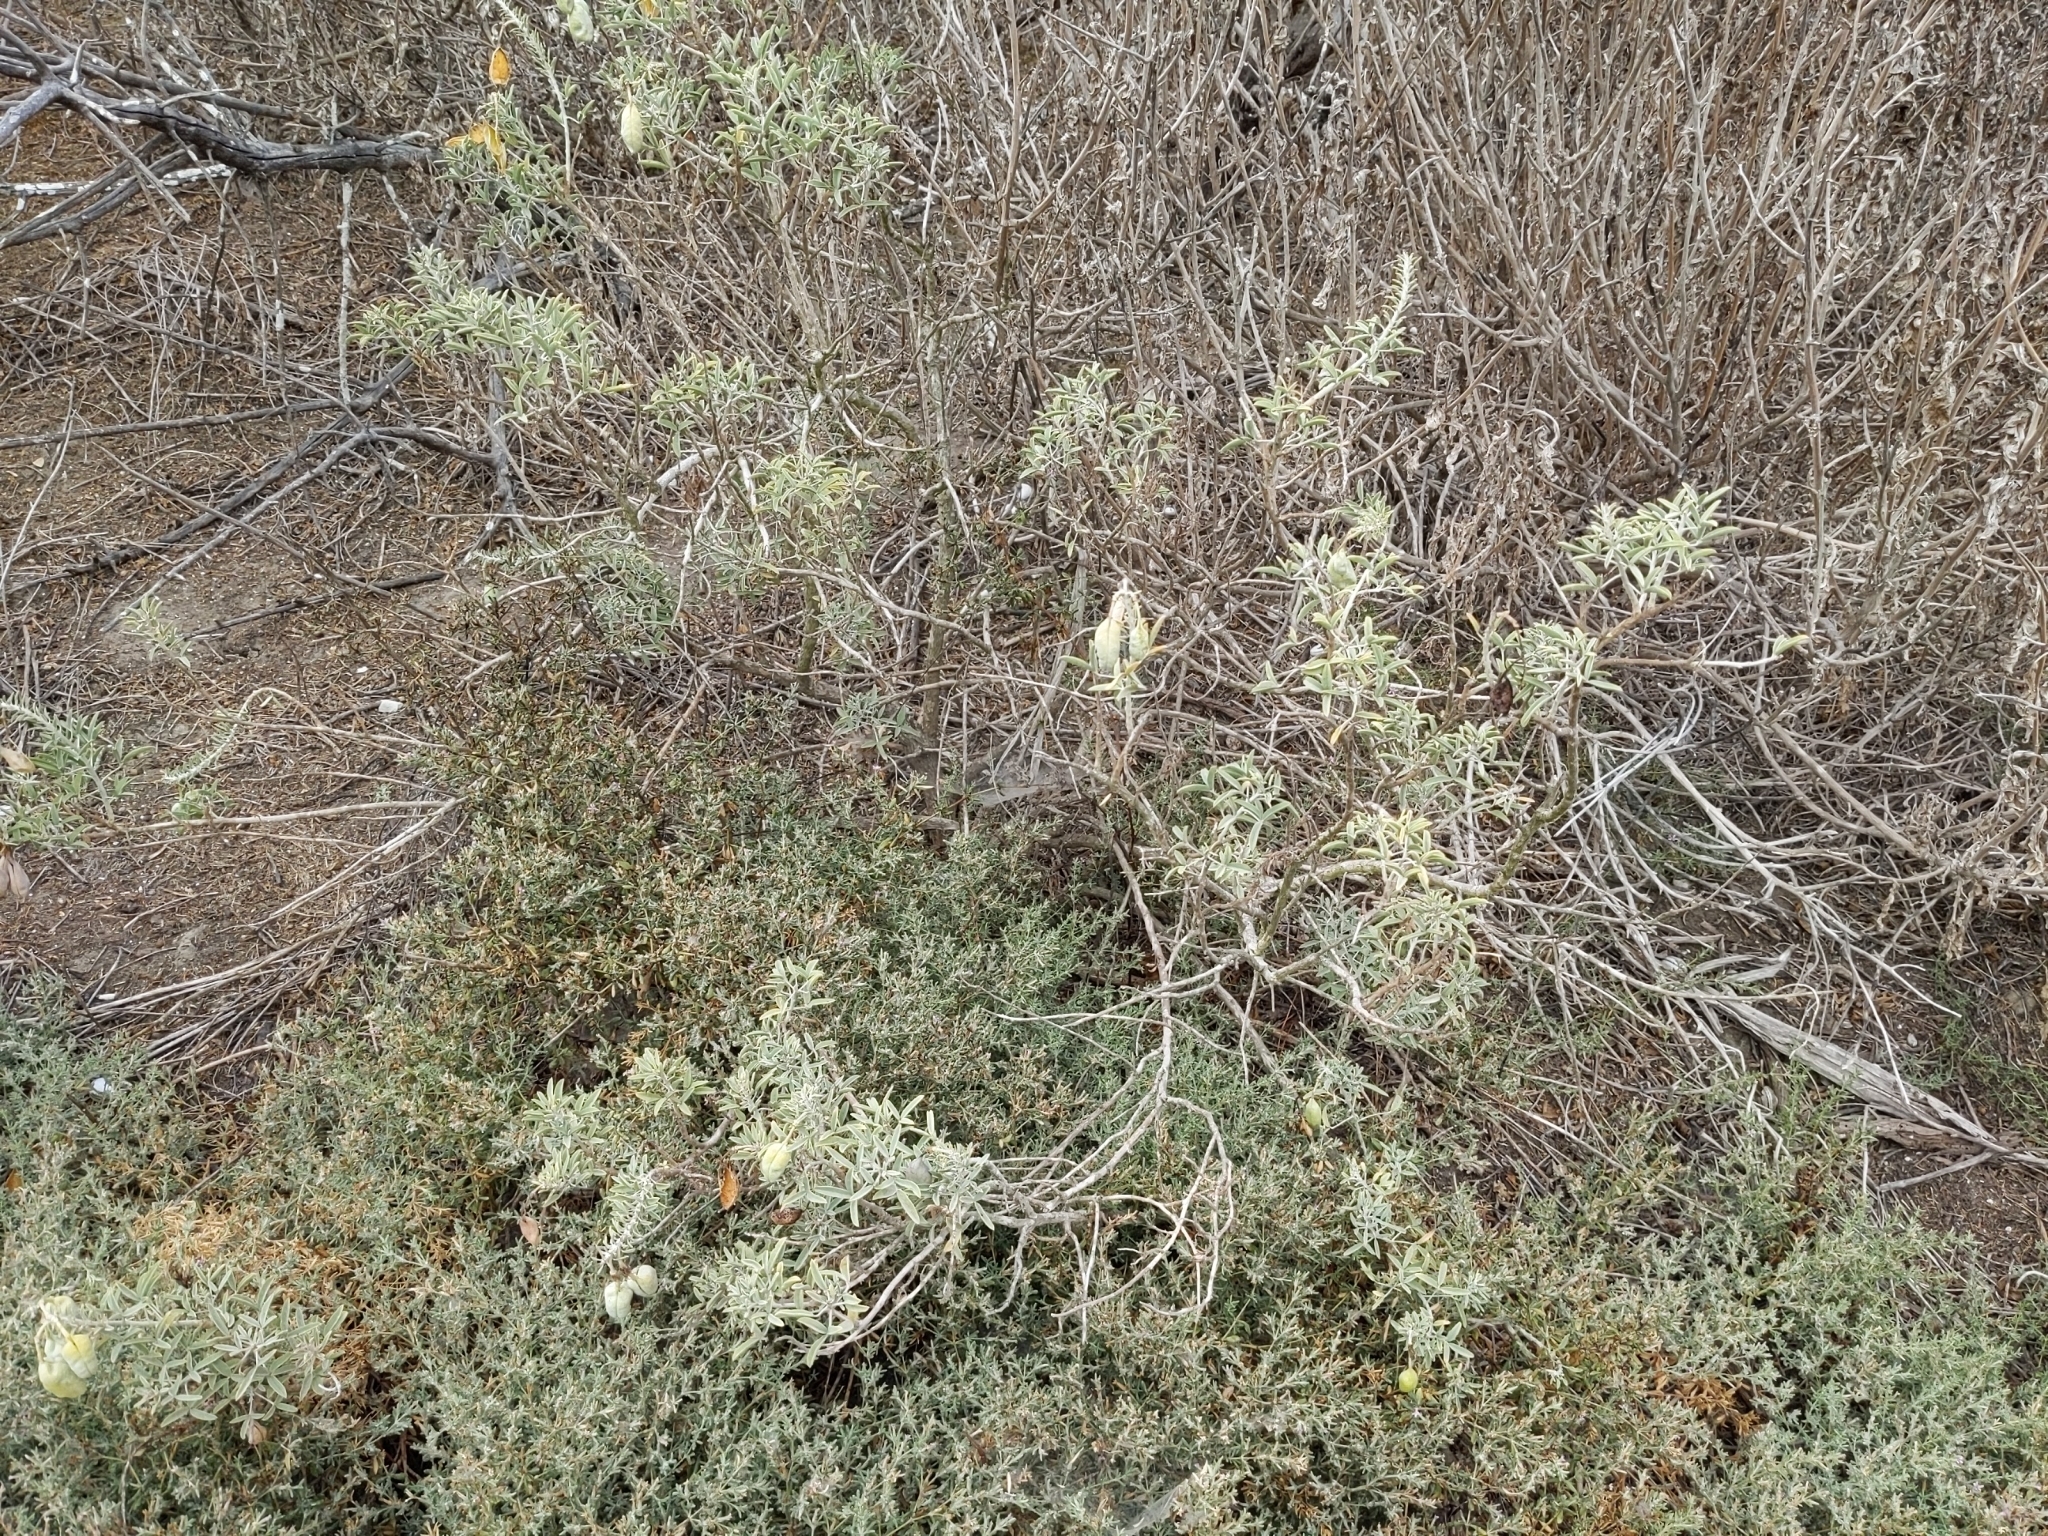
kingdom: Plantae
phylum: Tracheophyta
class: Magnoliopsida
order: Brassicales
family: Cleomaceae
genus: Cleomella
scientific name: Cleomella arborea
